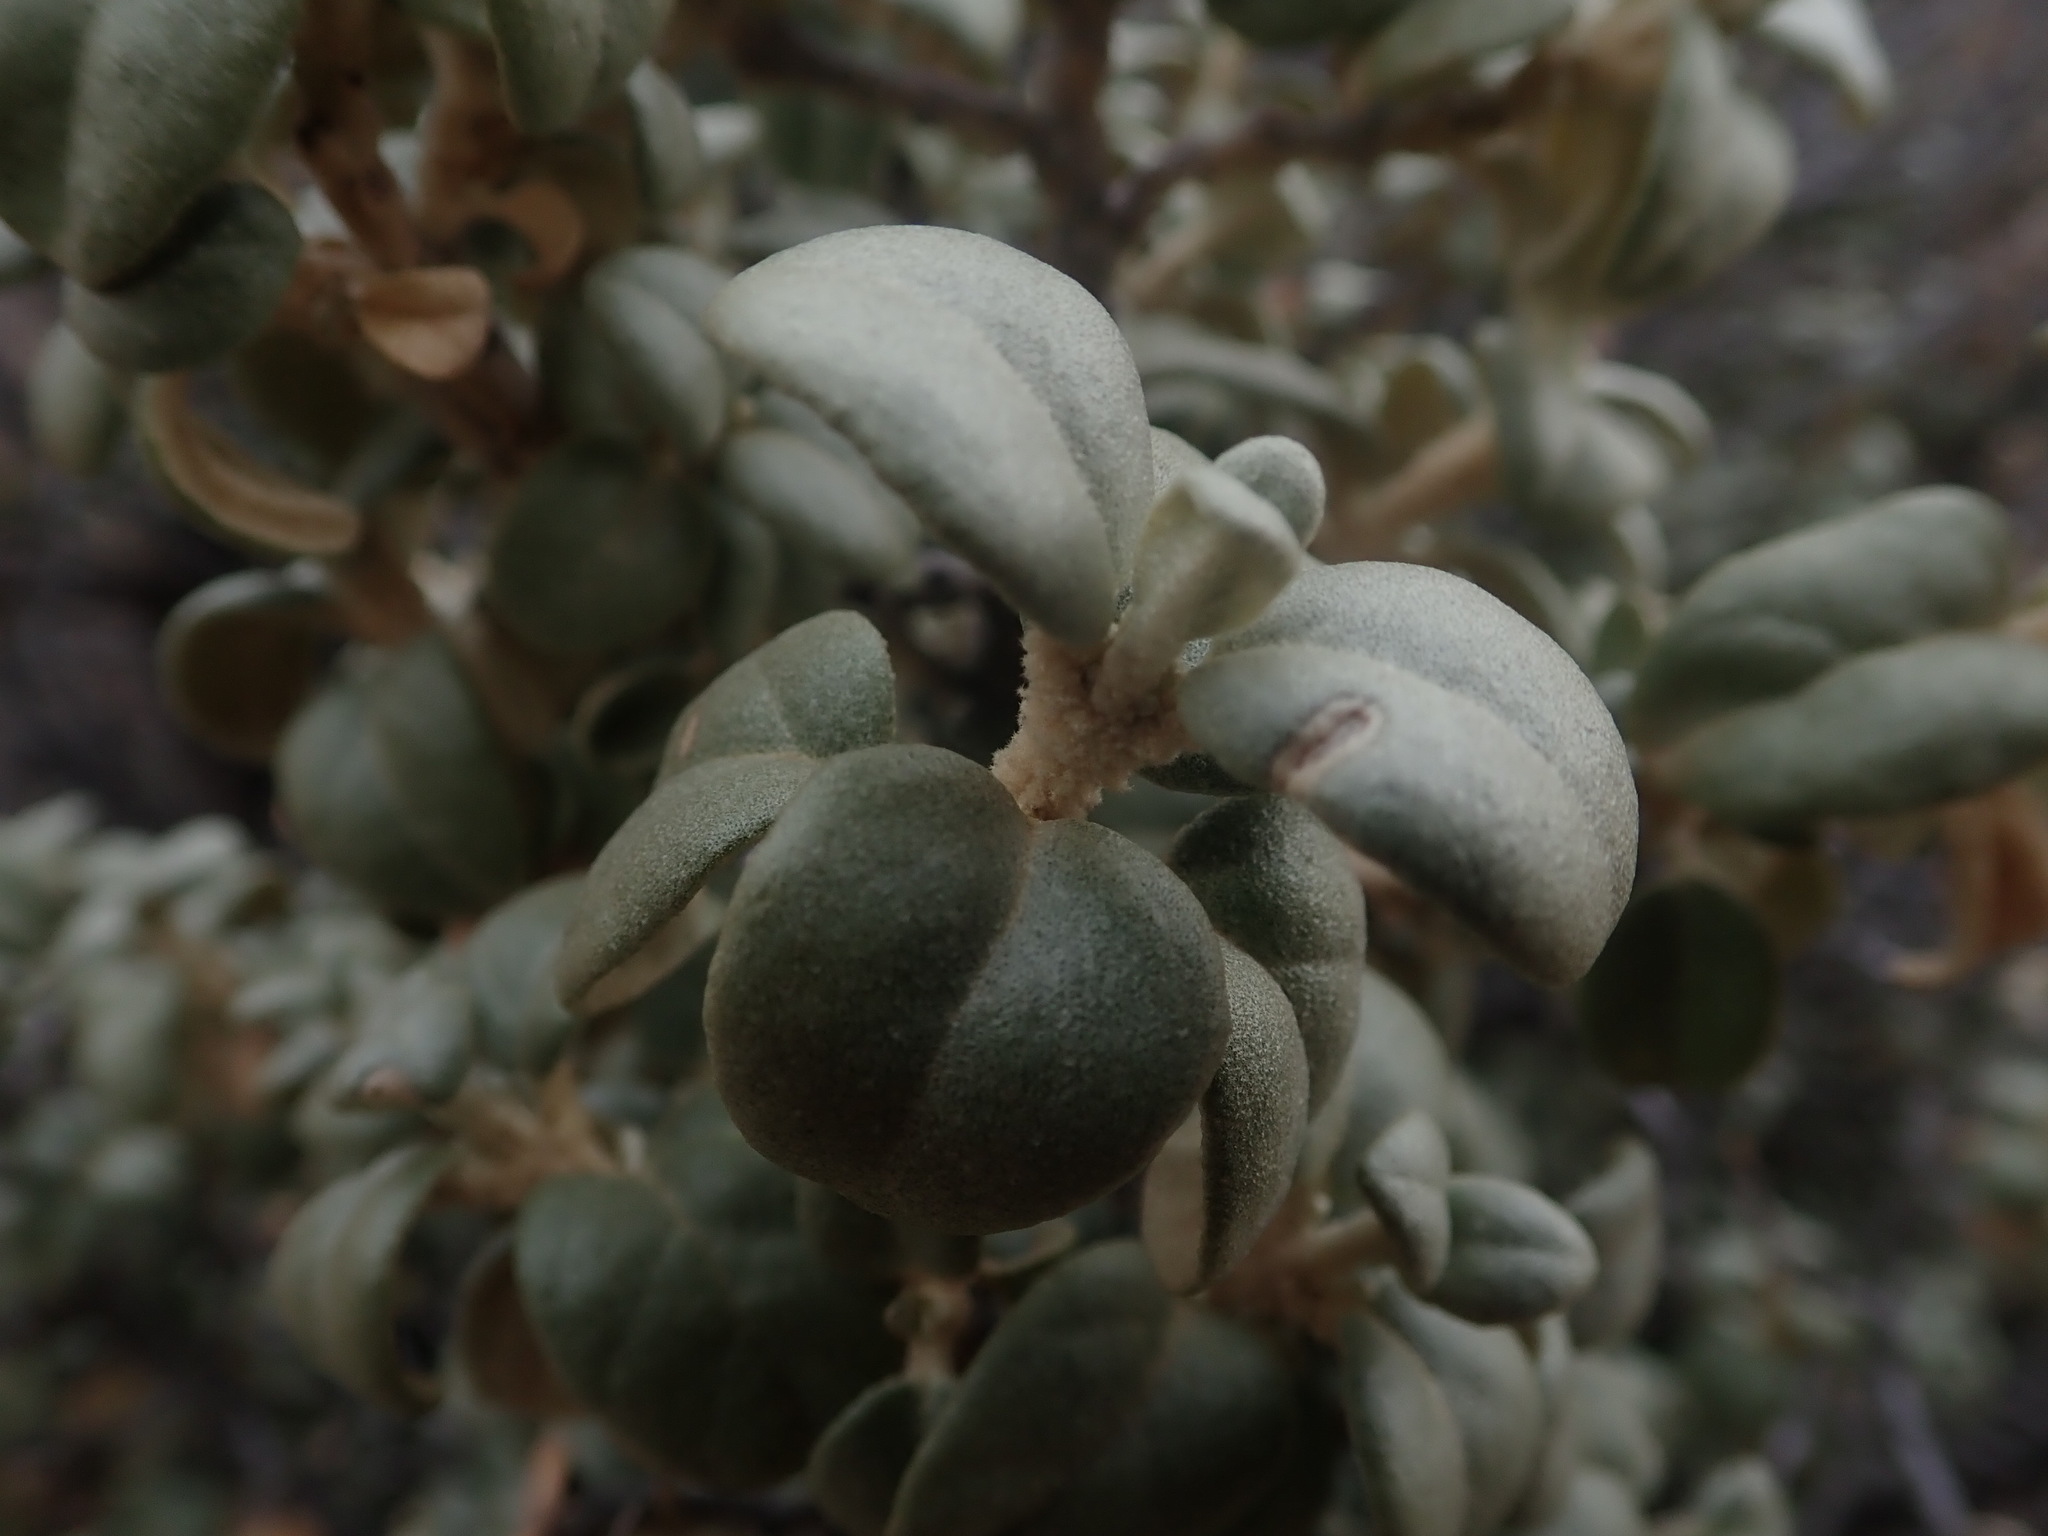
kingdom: Plantae
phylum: Tracheophyta
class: Magnoliopsida
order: Rosales
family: Elaeagnaceae
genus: Shepherdia
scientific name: Shepherdia rotundifolia
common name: Silverscale
